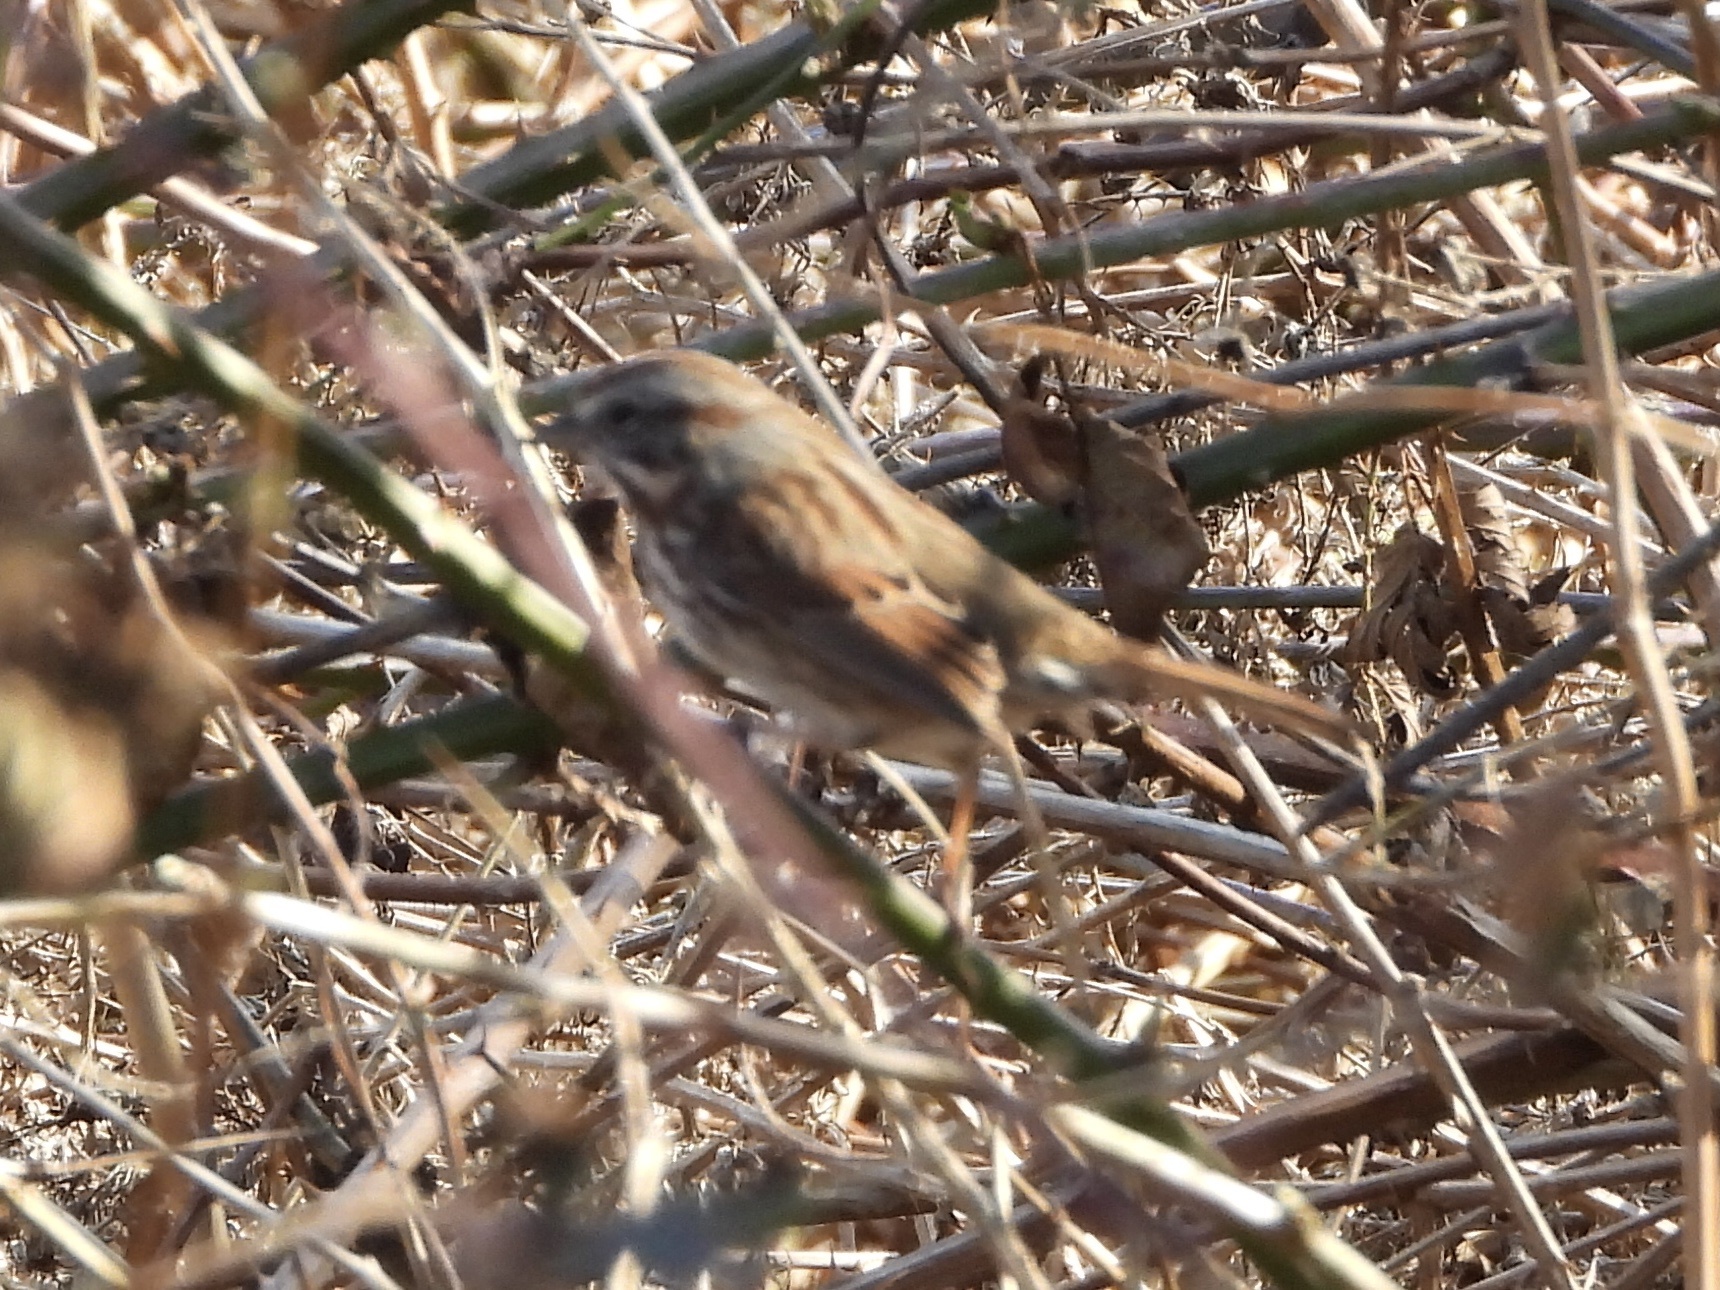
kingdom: Animalia
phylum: Chordata
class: Aves
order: Passeriformes
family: Passerellidae
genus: Melospiza
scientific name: Melospiza melodia
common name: Song sparrow
